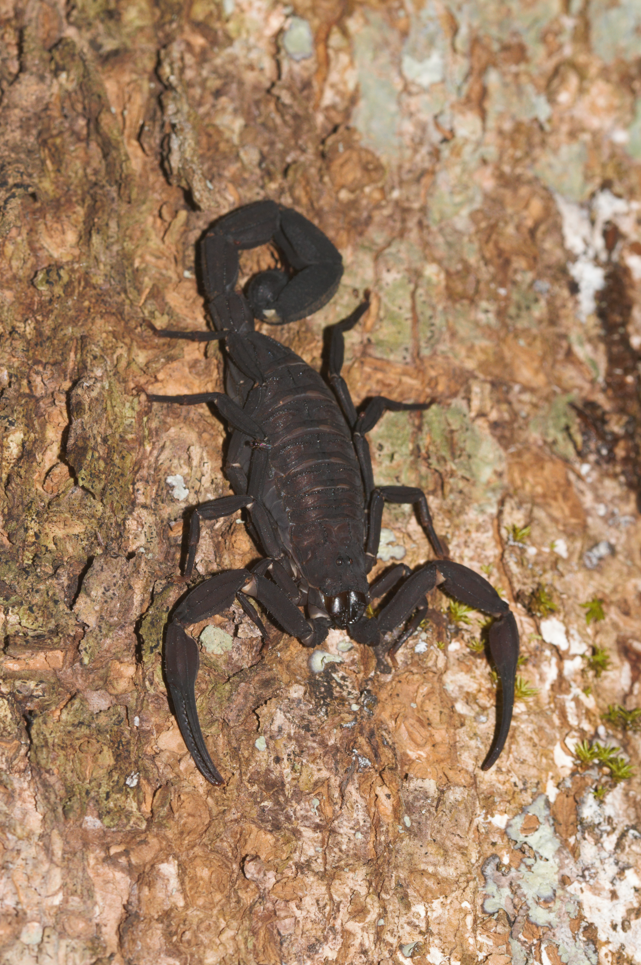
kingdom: Animalia
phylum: Arthropoda
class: Arachnida
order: Scorpiones
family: Buthidae
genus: Tityus
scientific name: Tityus obscurus
